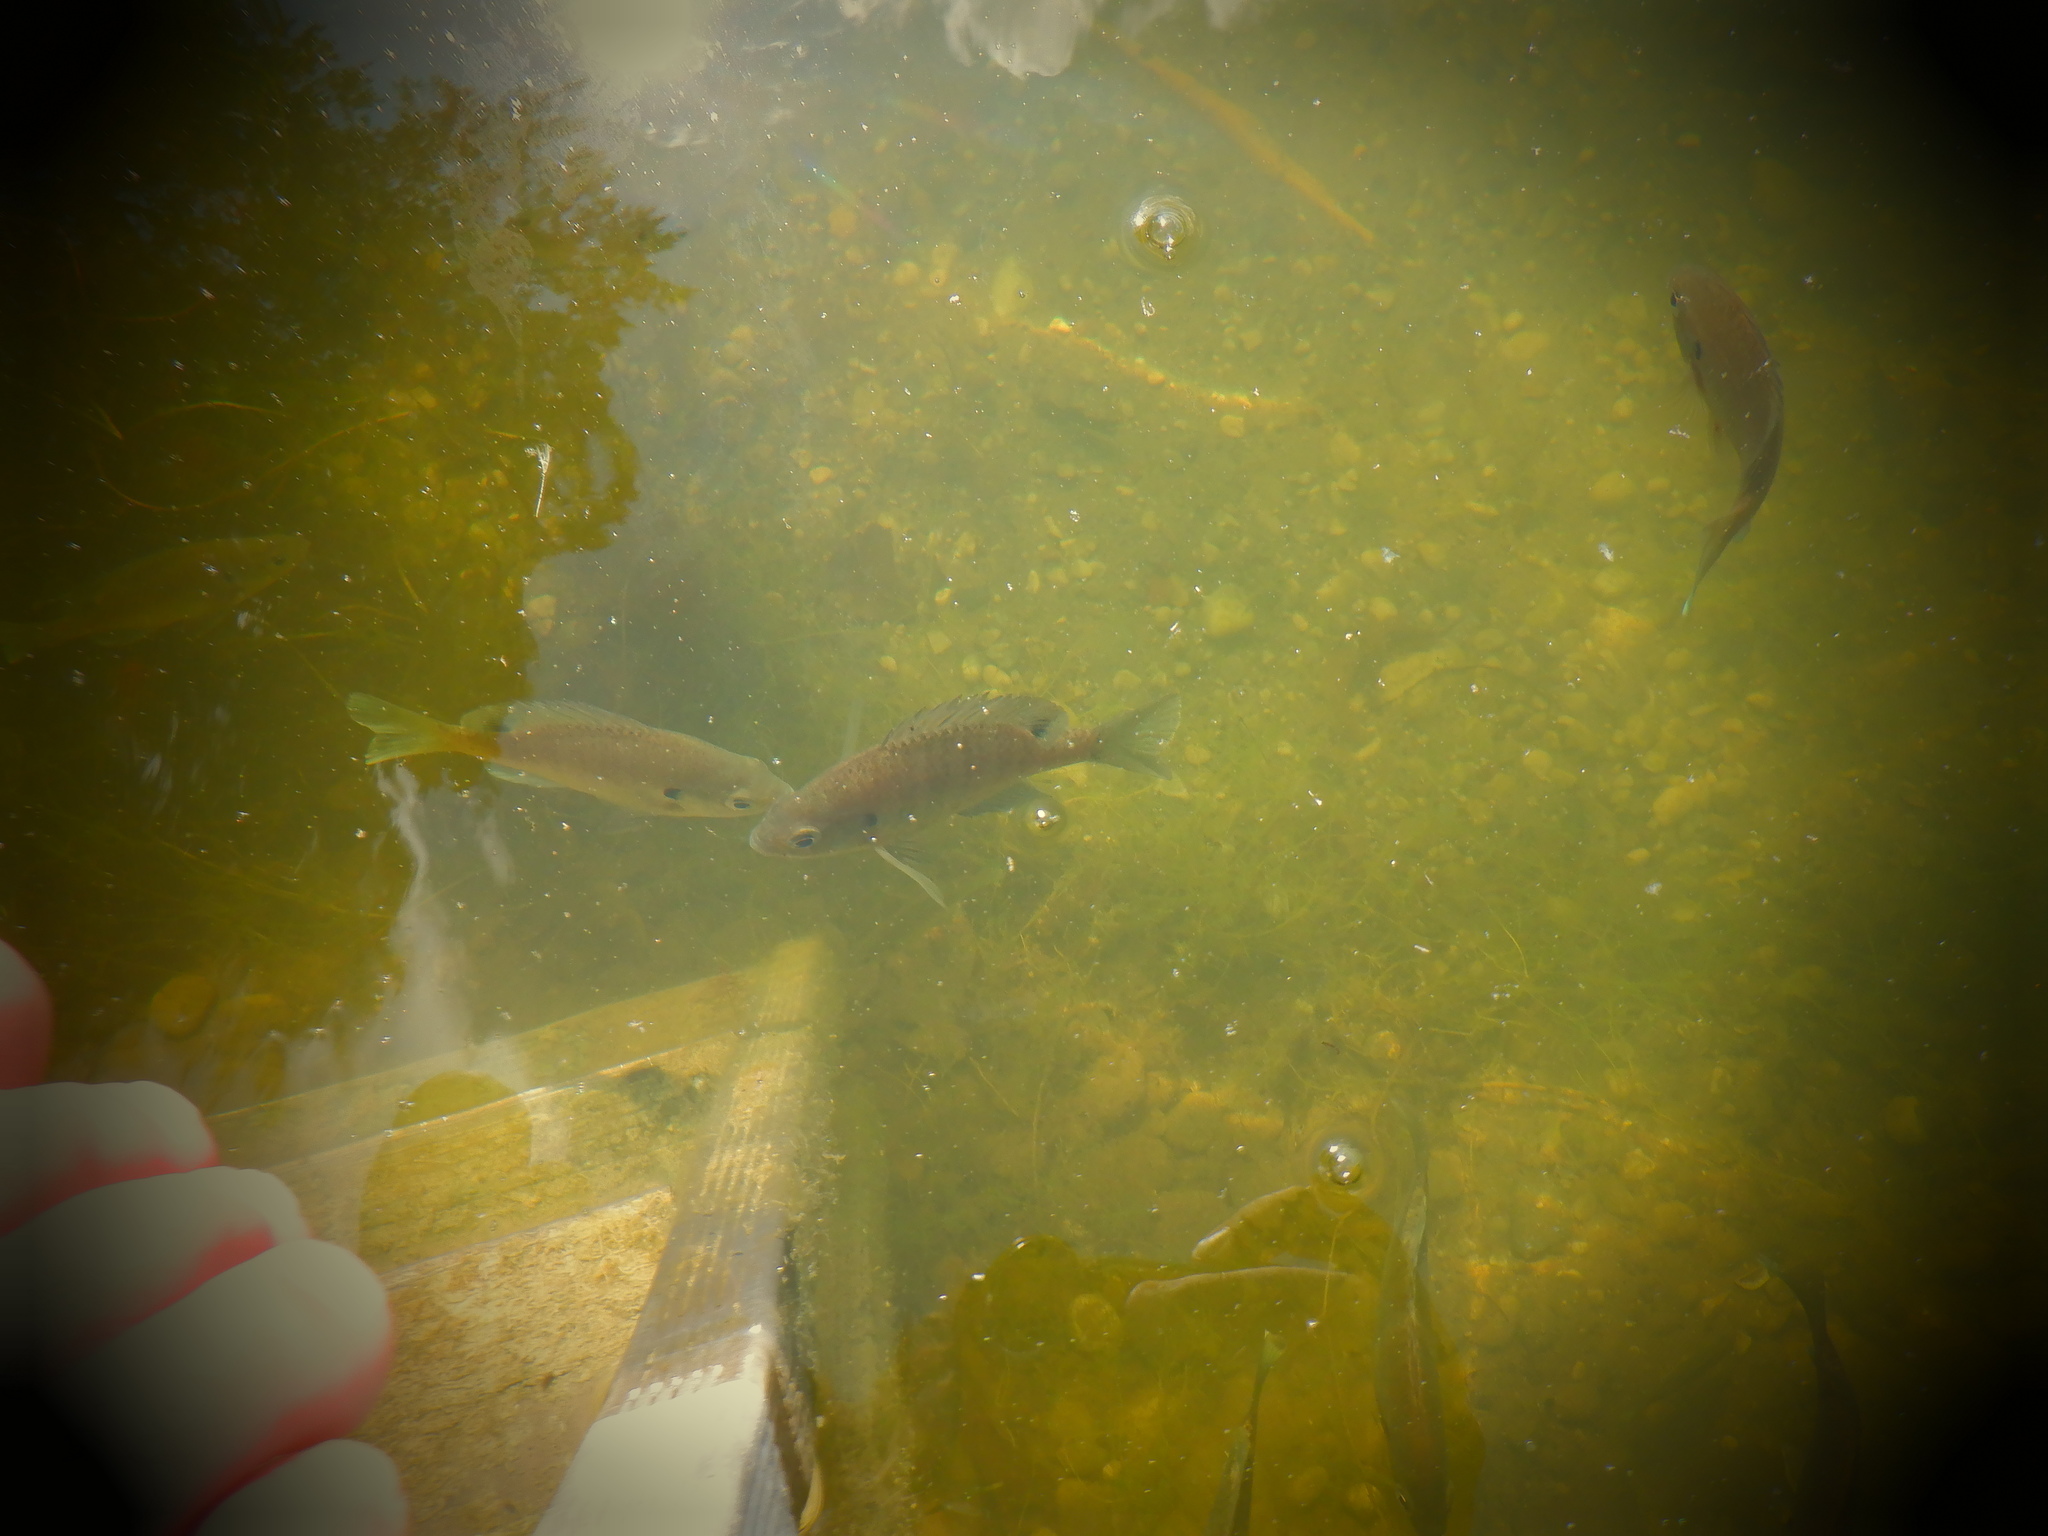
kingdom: Animalia
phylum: Chordata
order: Perciformes
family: Centrarchidae
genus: Lepomis
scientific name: Lepomis macrochirus
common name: Bluegill
